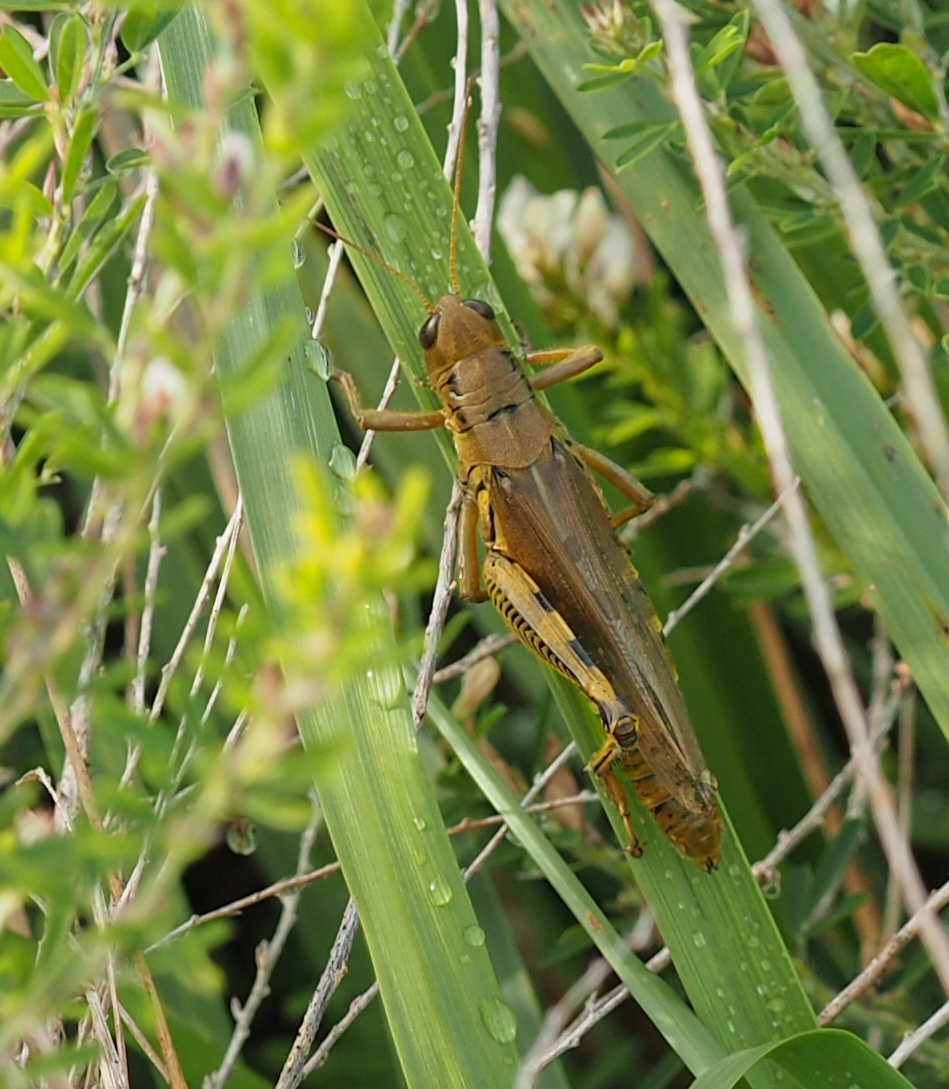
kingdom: Animalia
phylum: Arthropoda
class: Insecta
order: Orthoptera
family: Acrididae
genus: Melanoplus
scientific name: Melanoplus differentialis
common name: Differential grasshopper
